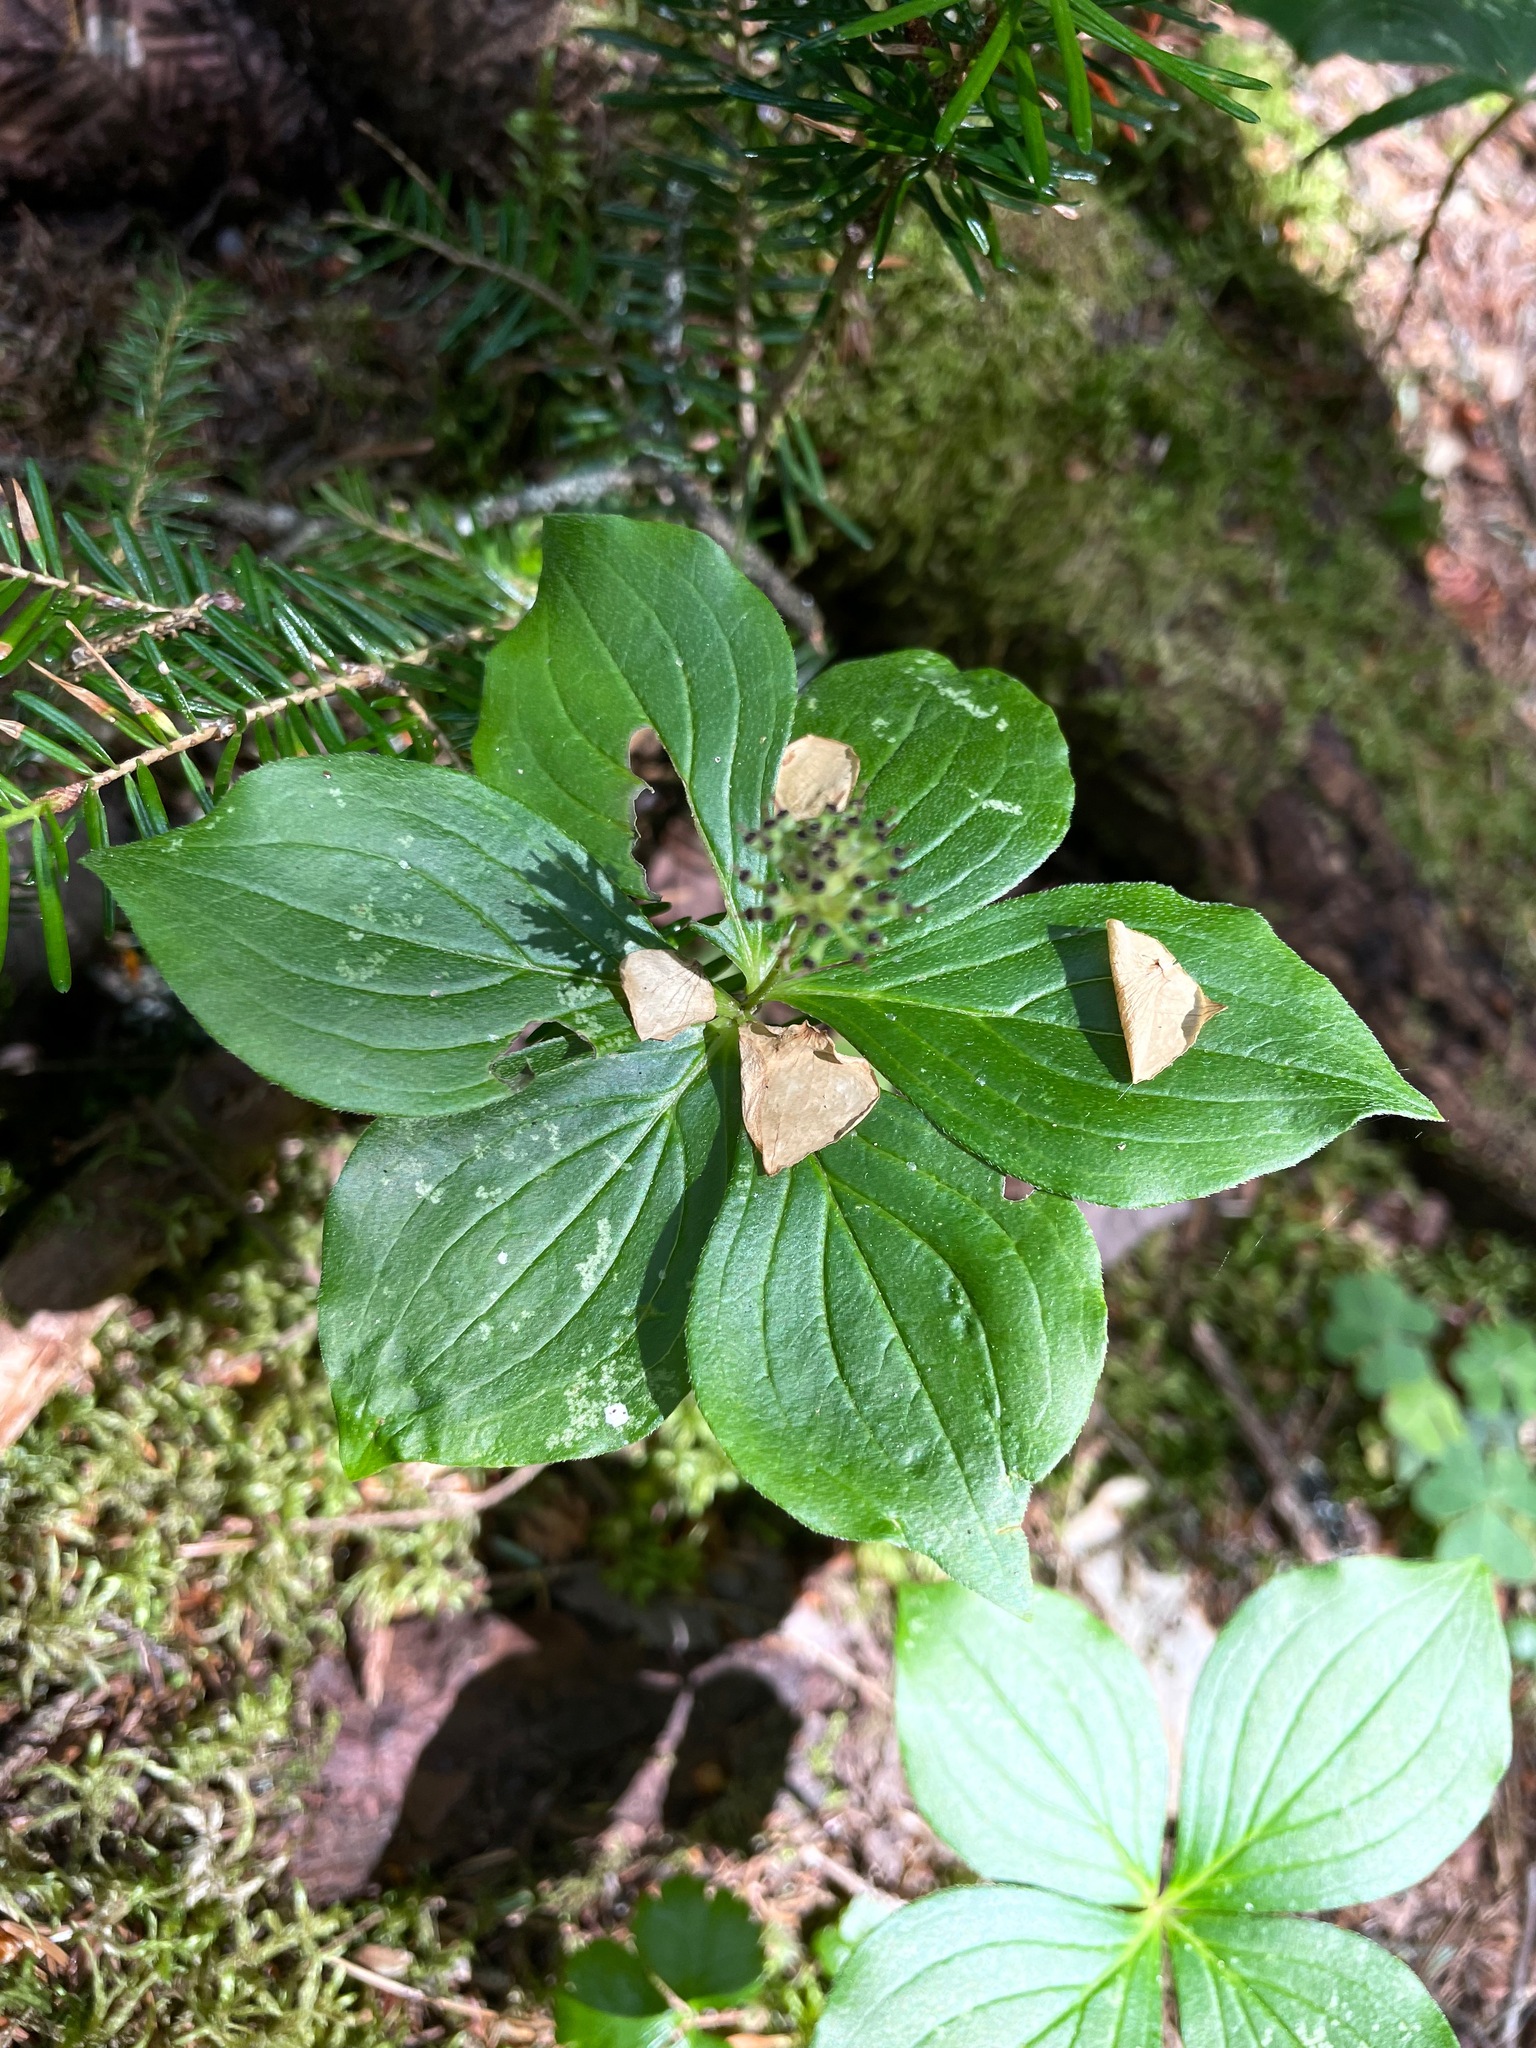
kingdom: Plantae
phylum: Tracheophyta
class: Magnoliopsida
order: Cornales
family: Cornaceae
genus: Cornus
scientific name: Cornus canadensis
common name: Creeping dogwood
